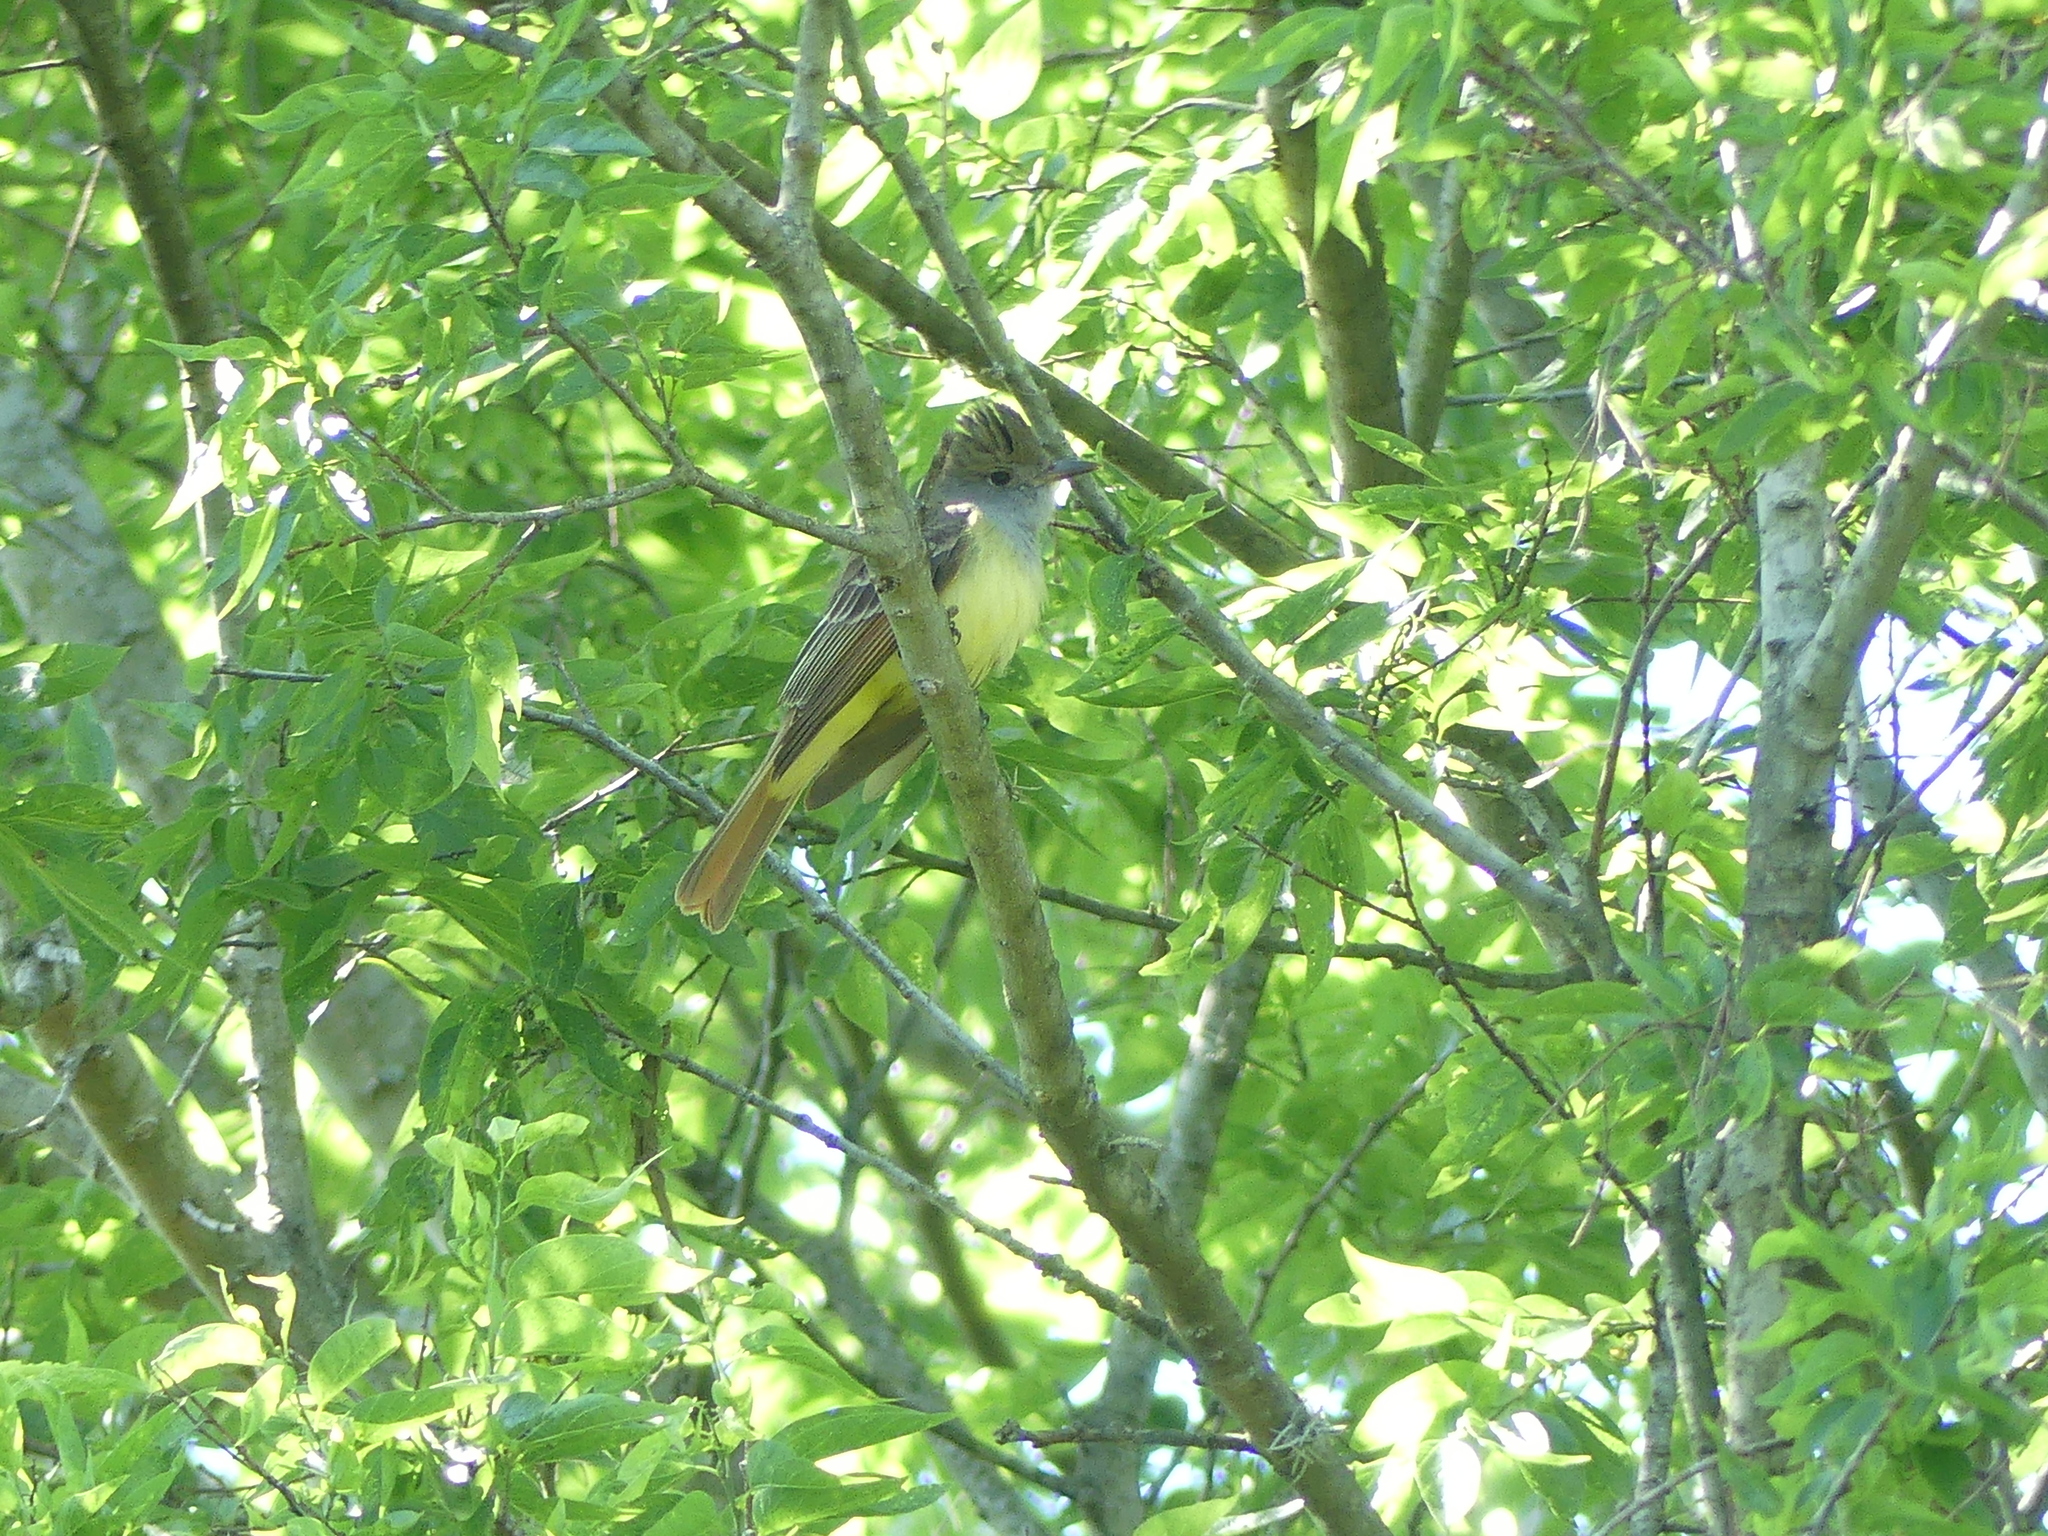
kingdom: Animalia
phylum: Chordata
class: Aves
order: Passeriformes
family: Tyrannidae
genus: Myiarchus
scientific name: Myiarchus crinitus
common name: Great crested flycatcher
